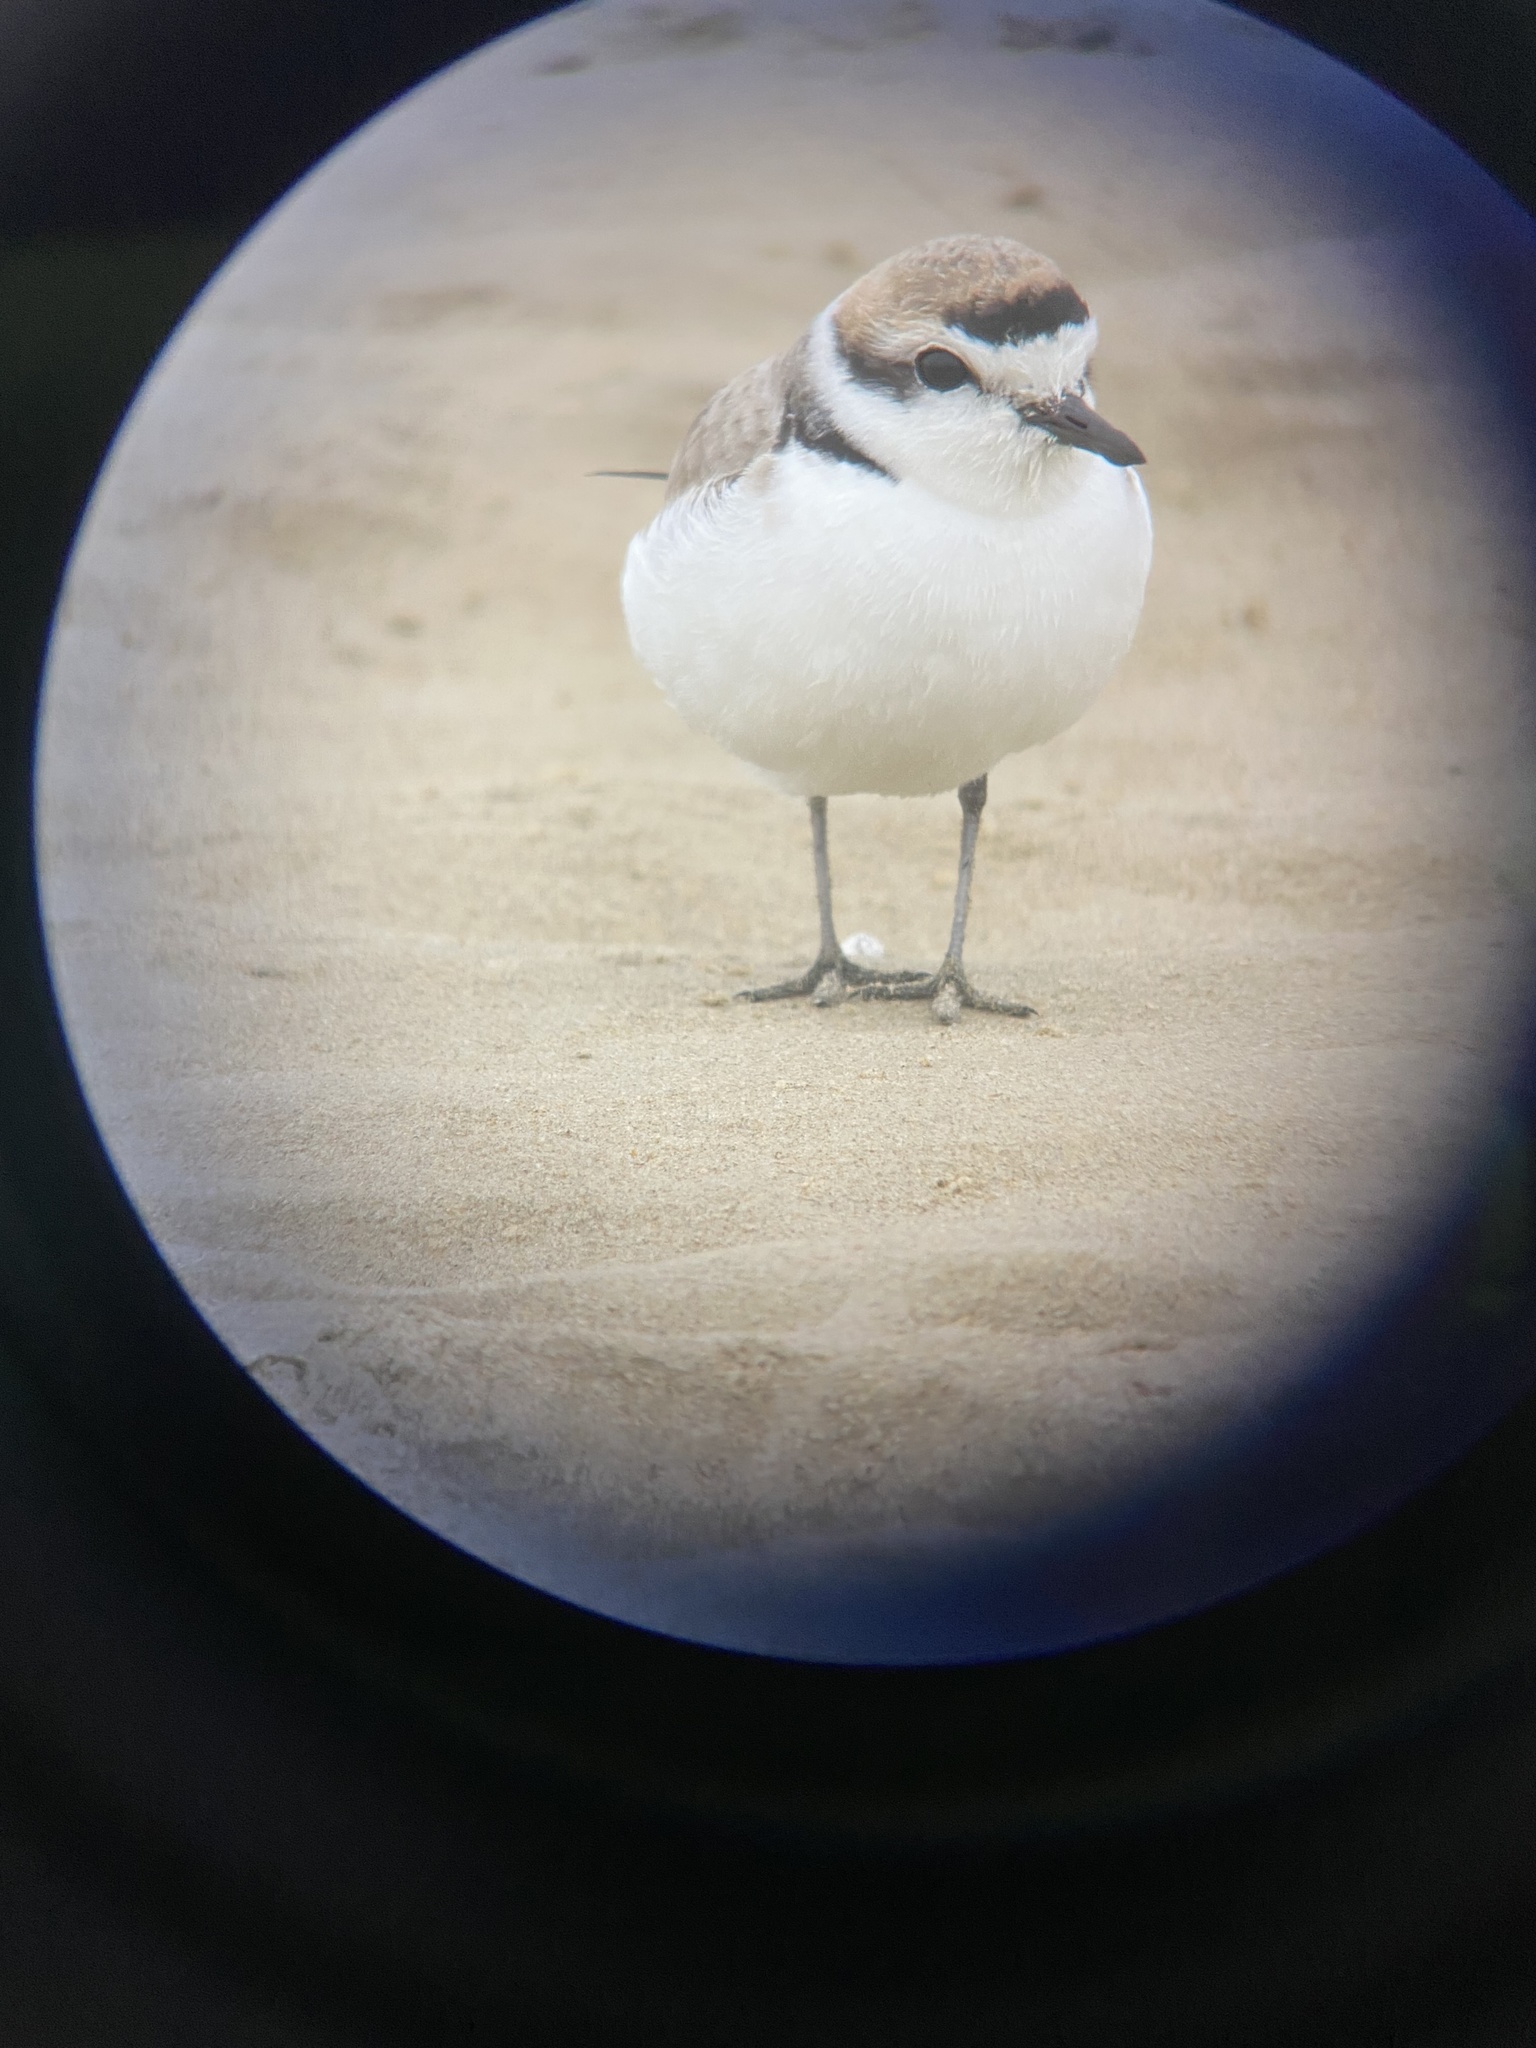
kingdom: Animalia
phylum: Chordata
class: Aves
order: Charadriiformes
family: Charadriidae
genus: Anarhynchus
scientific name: Anarhynchus
